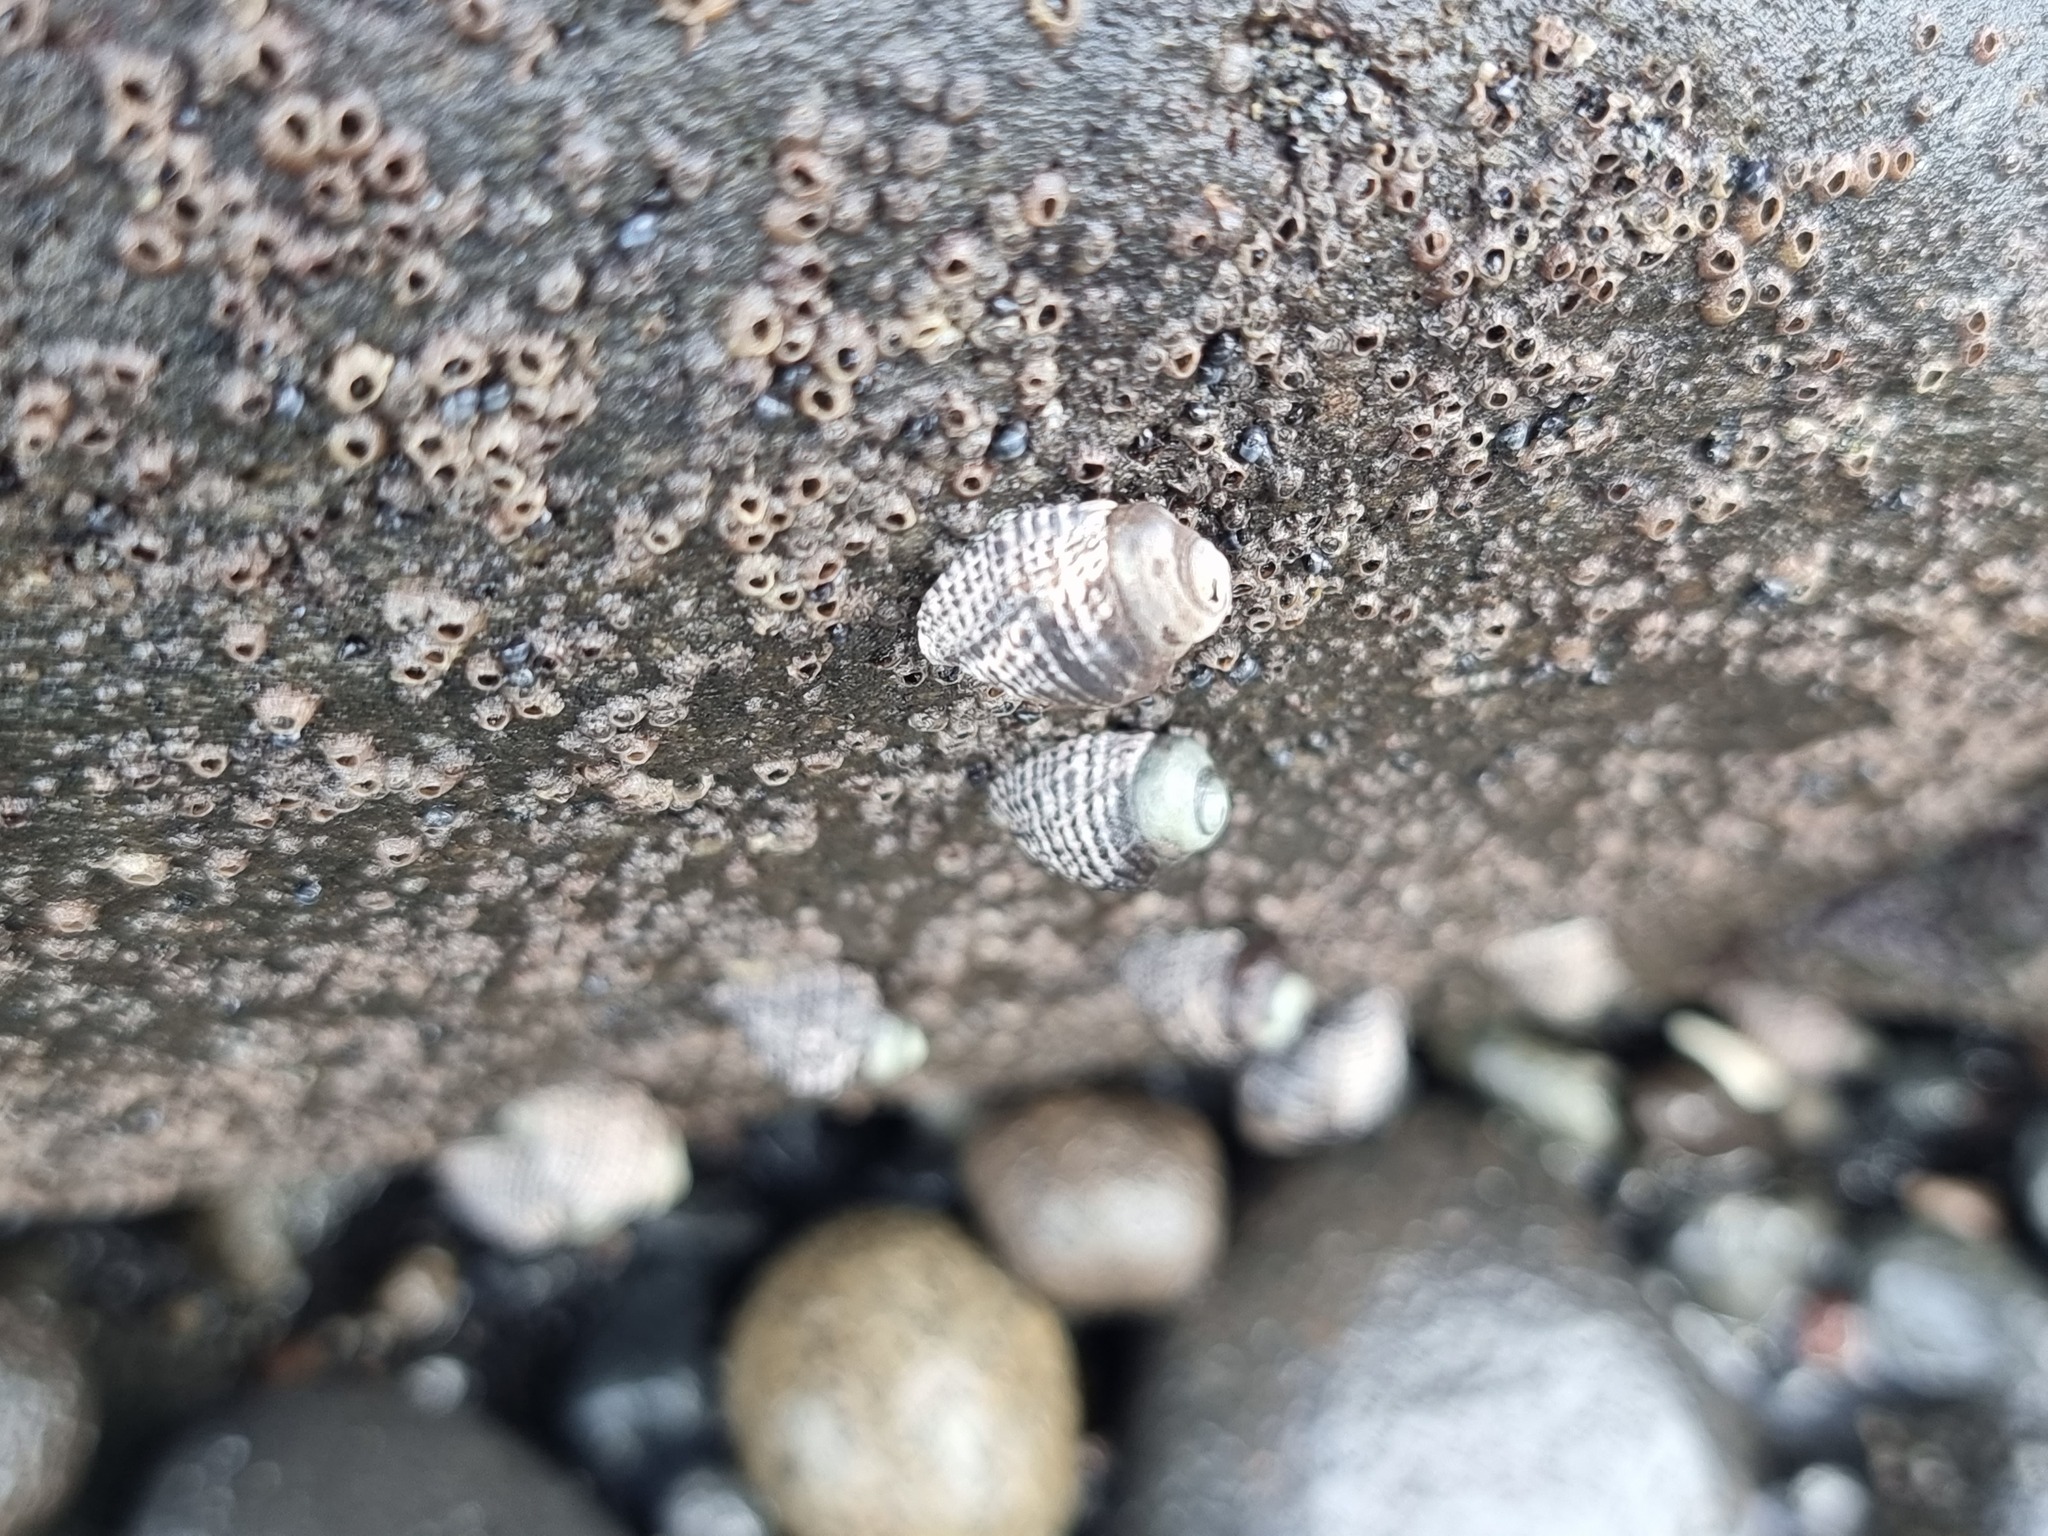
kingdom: Animalia
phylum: Mollusca
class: Gastropoda
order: Neogastropoda
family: Muricidae
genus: Haustrum
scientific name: Haustrum scobina
